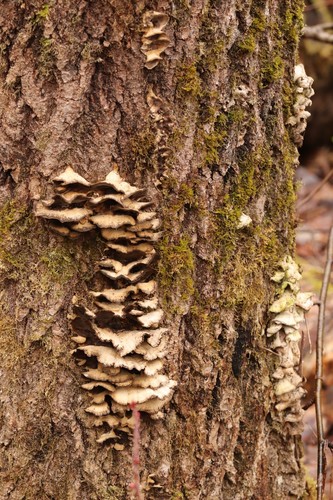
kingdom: Fungi
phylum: Basidiomycota
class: Agaricomycetes
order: Polyporales
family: Phanerochaetaceae
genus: Bjerkandera
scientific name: Bjerkandera adusta
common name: Smoky bracket
